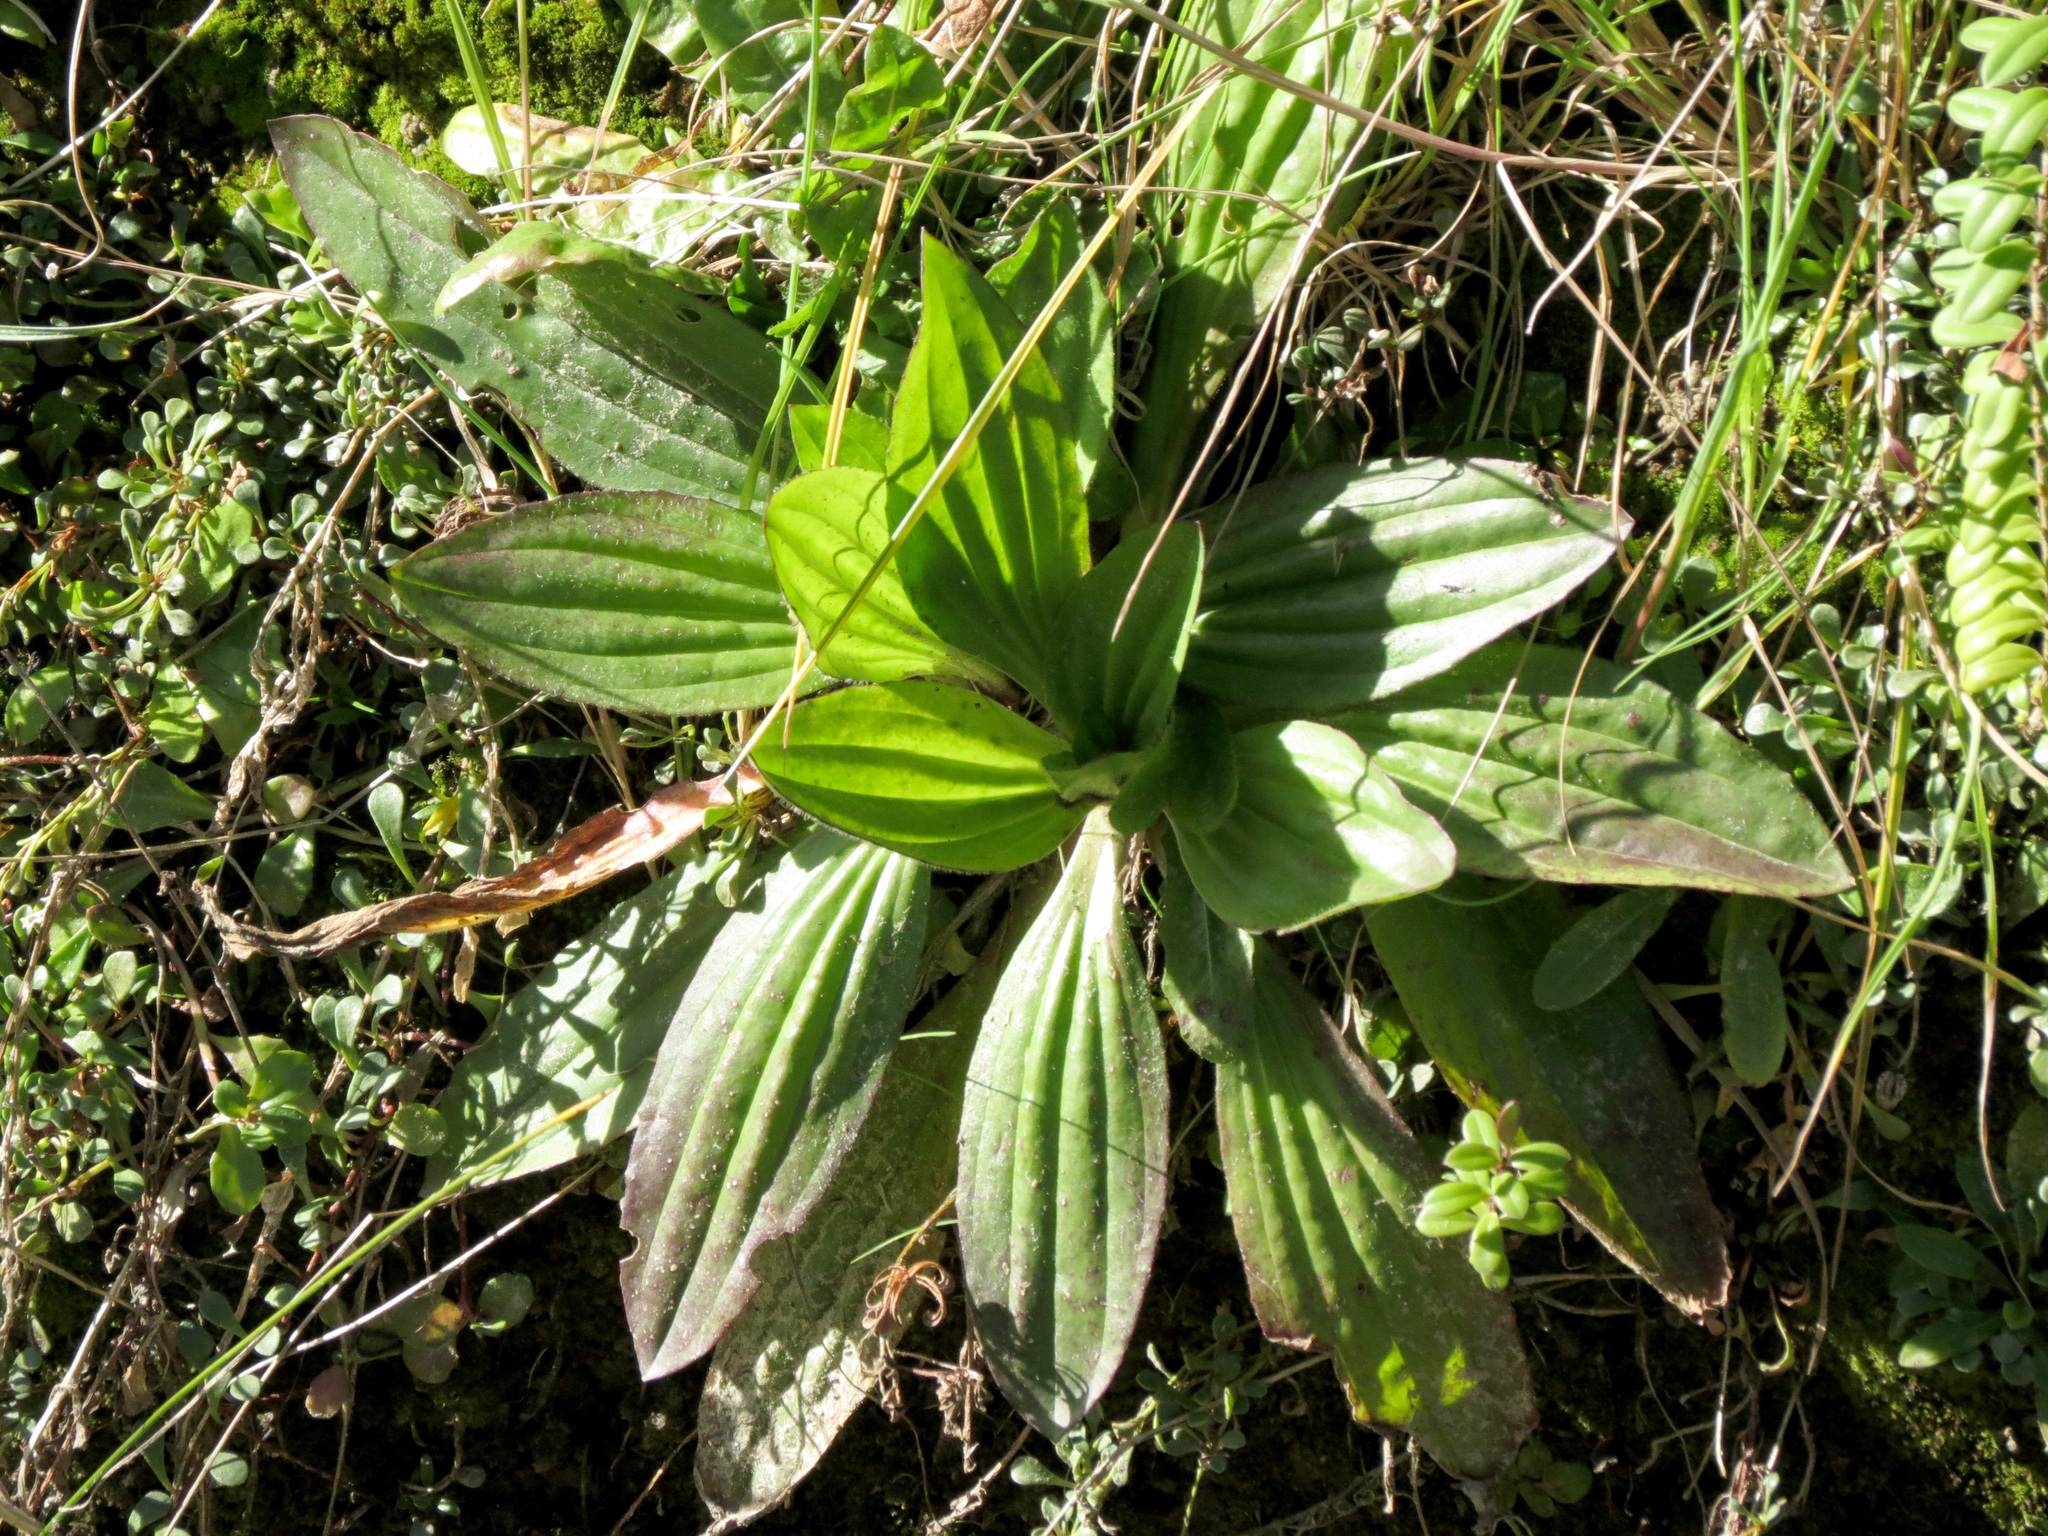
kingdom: Plantae
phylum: Tracheophyta
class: Magnoliopsida
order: Lamiales
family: Plantaginaceae
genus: Plantago
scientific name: Plantago australis
